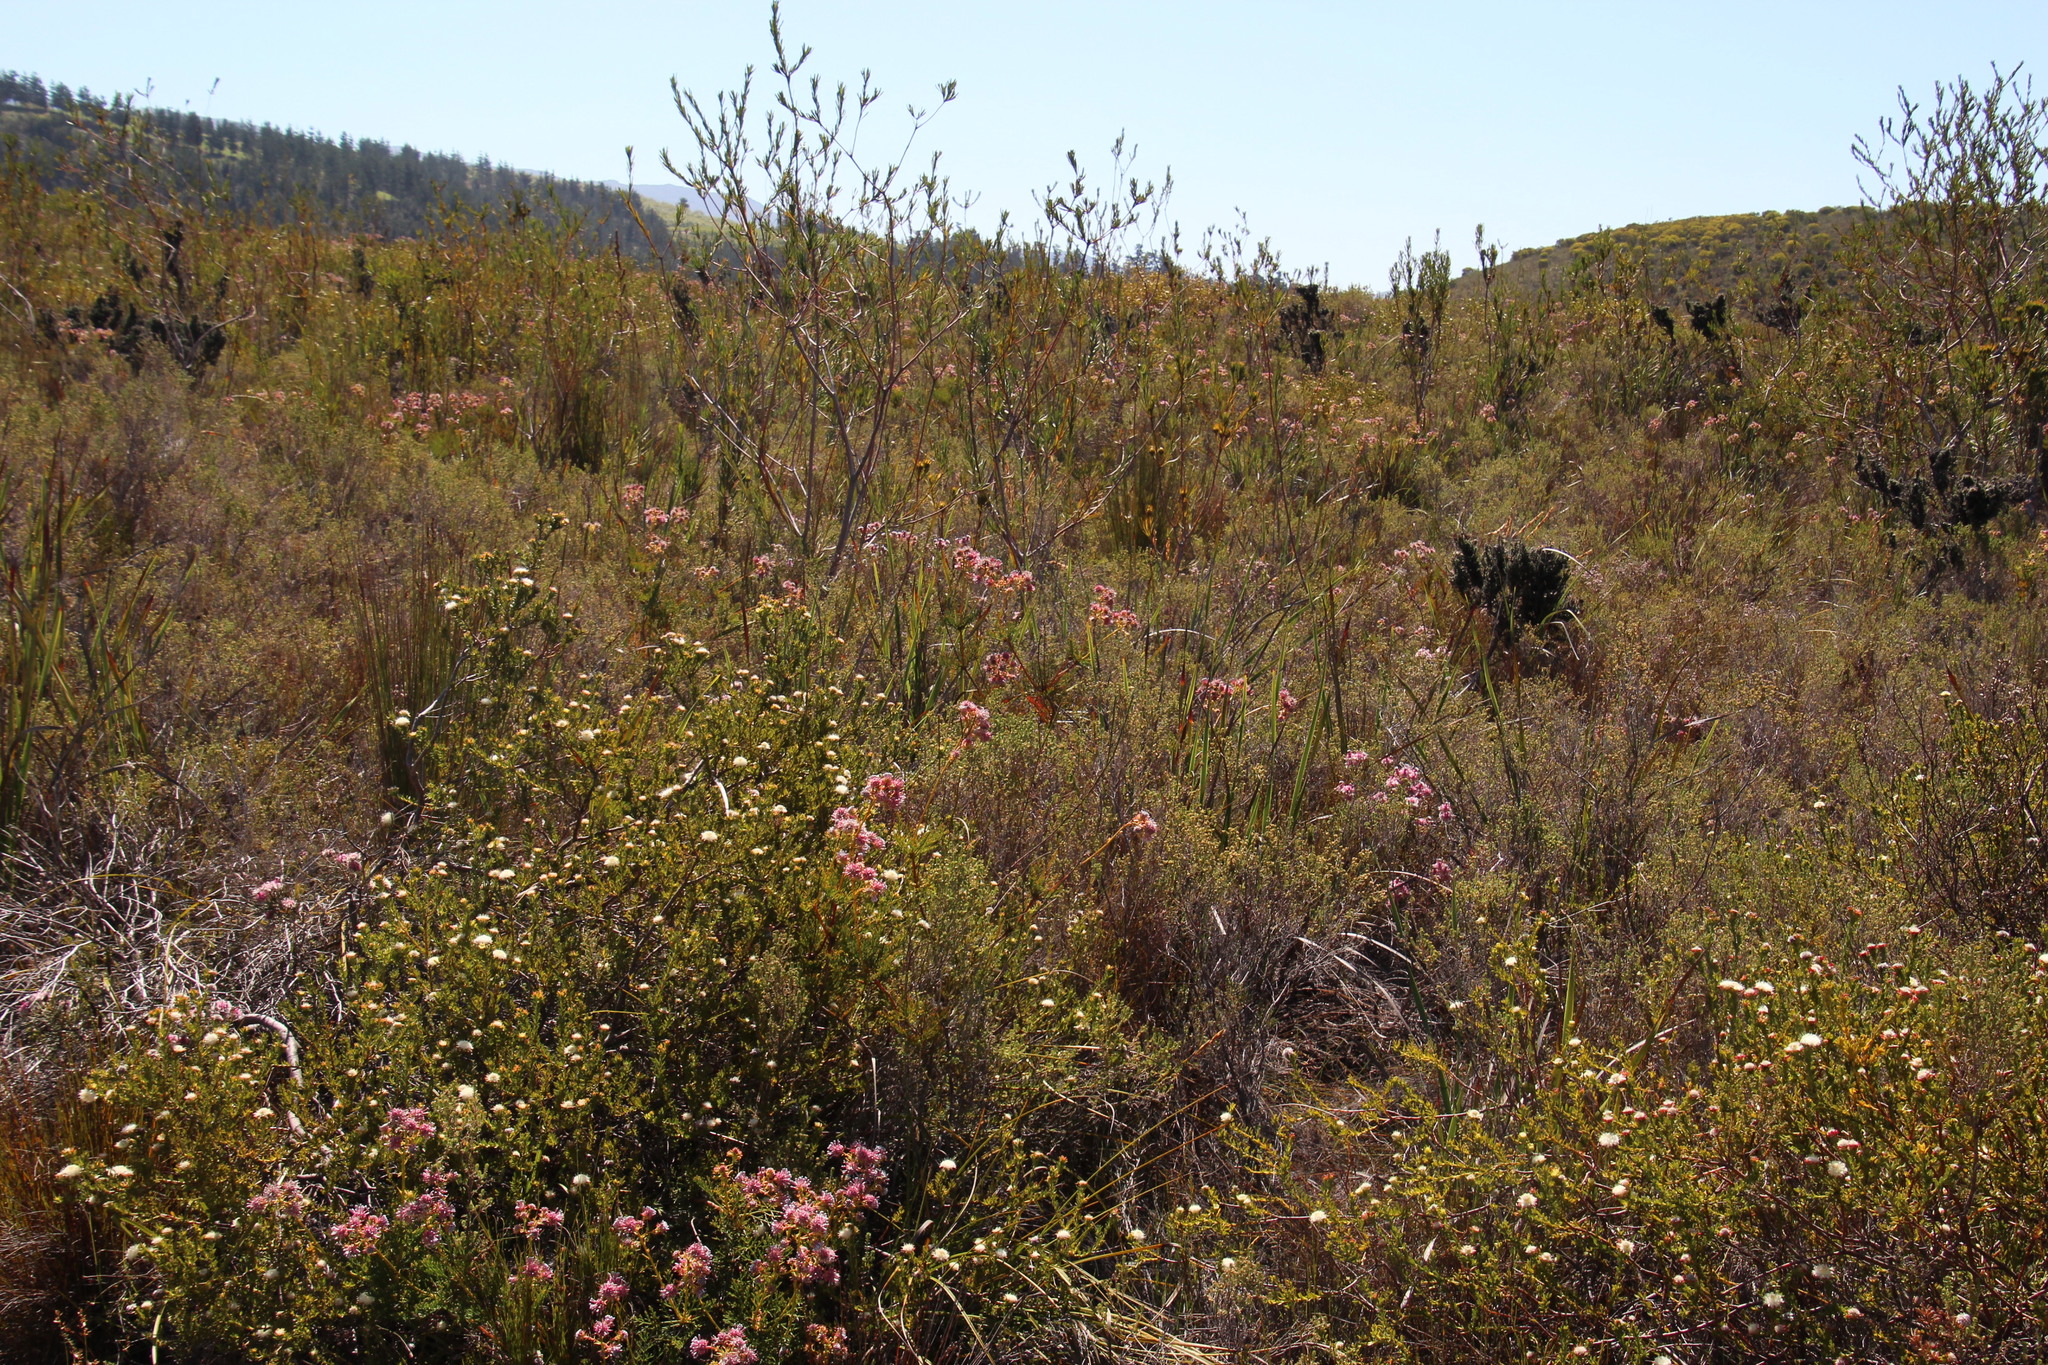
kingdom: Plantae
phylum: Tracheophyta
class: Magnoliopsida
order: Proteales
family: Proteaceae
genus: Serruria
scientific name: Serruria elongata
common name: Long-stalk spiderhead
